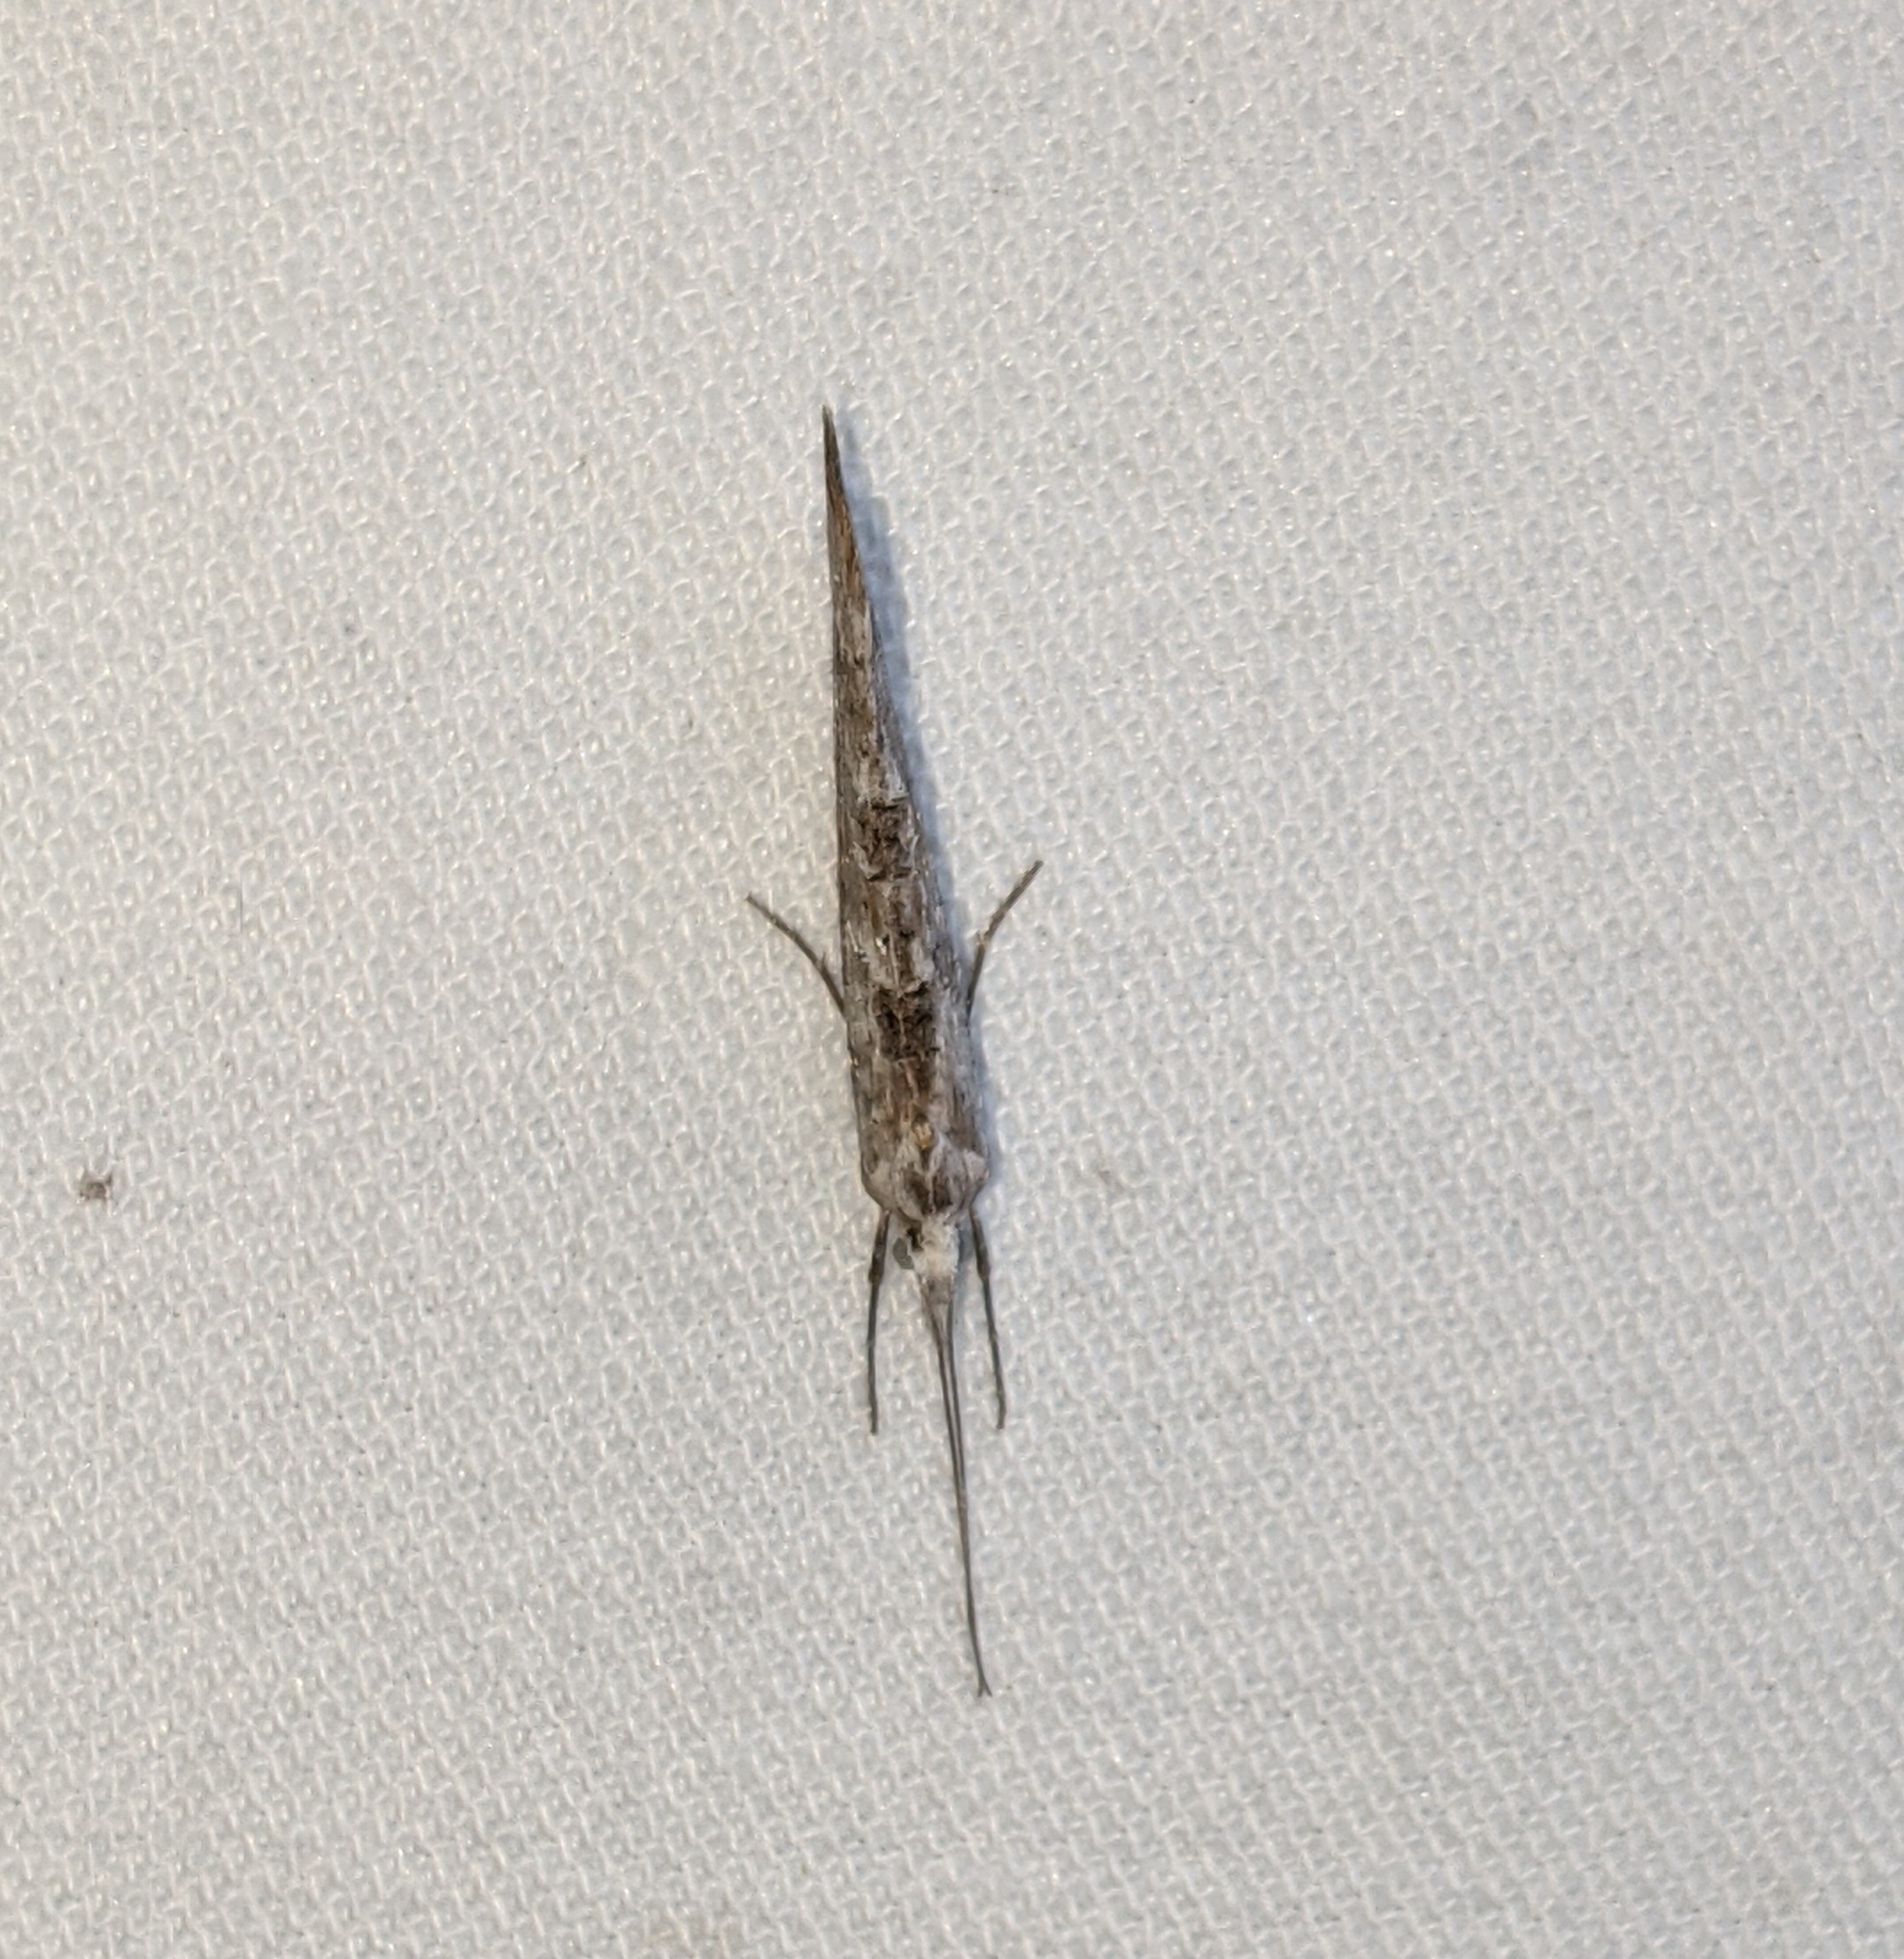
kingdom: Animalia
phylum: Arthropoda
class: Insecta
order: Lepidoptera
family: Ypsolophidae
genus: Ypsolopha
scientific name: Ypsolopha falciferella
